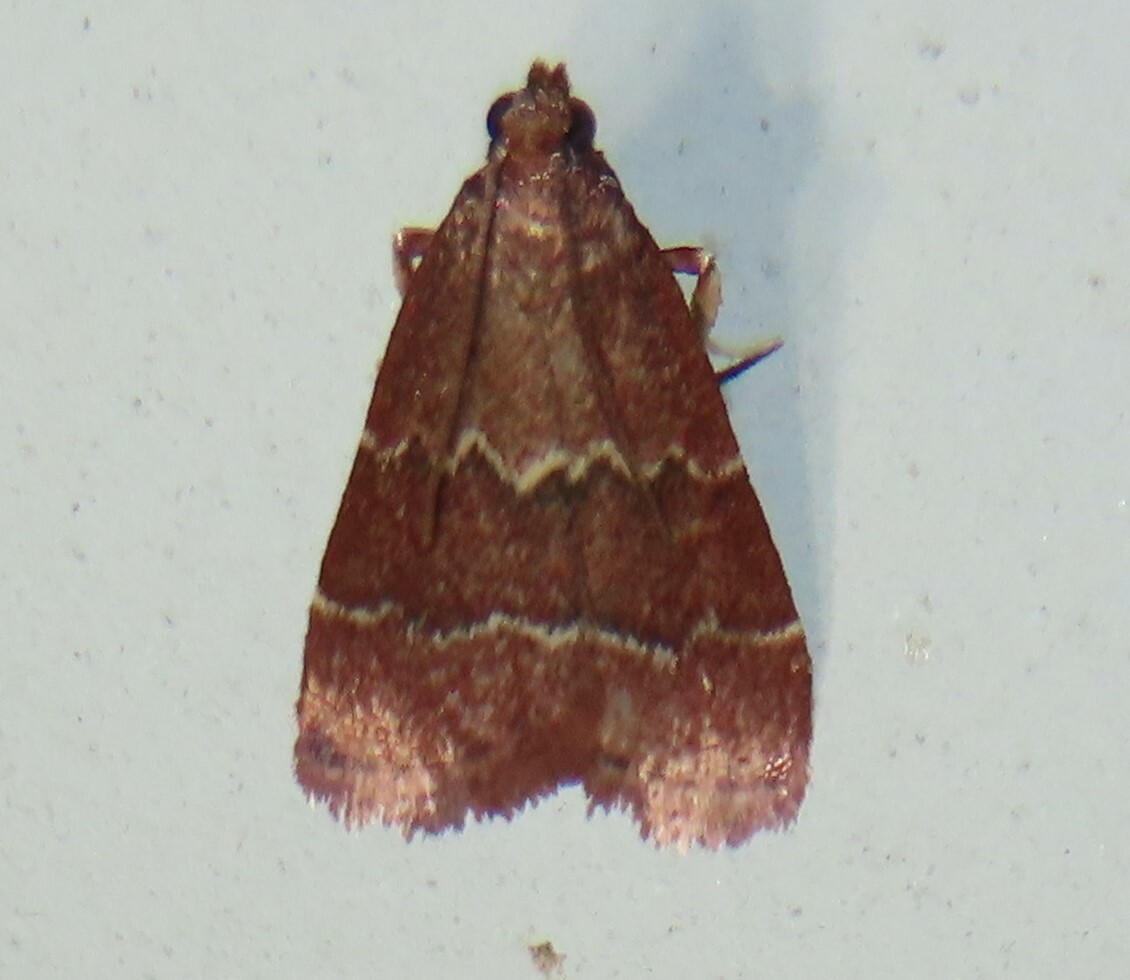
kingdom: Animalia
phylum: Arthropoda
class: Insecta
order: Lepidoptera
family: Pyralidae
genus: Arta
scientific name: Arta
